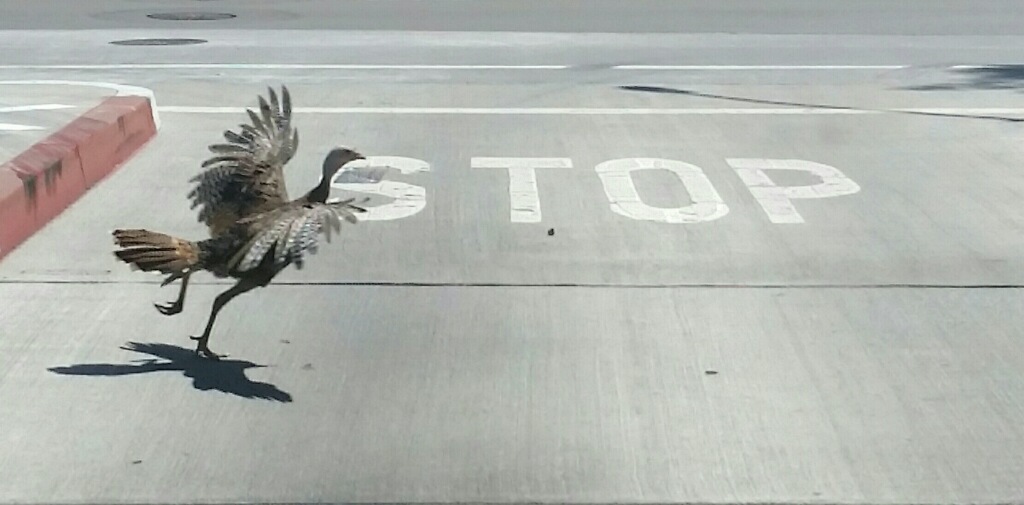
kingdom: Animalia
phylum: Chordata
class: Aves
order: Galliformes
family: Phasianidae
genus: Meleagris
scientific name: Meleagris gallopavo
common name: Wild turkey
